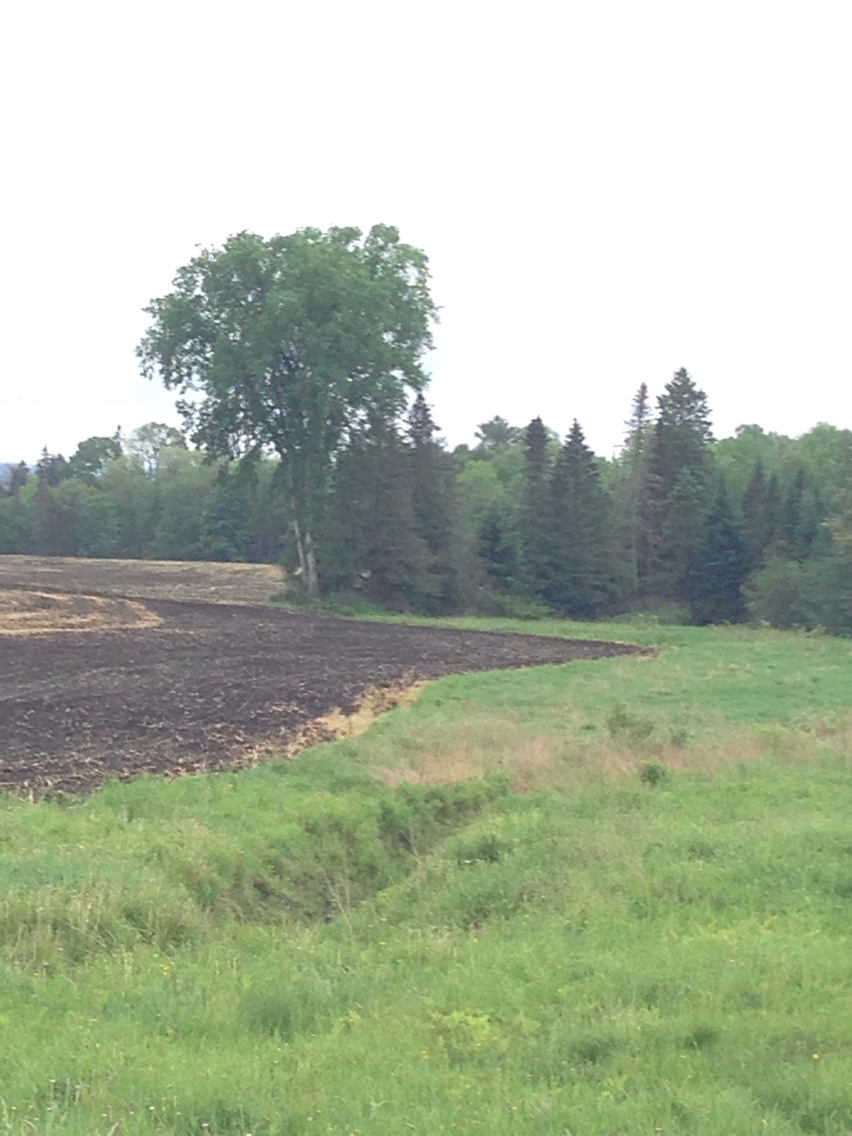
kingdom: Plantae
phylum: Tracheophyta
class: Magnoliopsida
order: Rosales
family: Ulmaceae
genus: Ulmus
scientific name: Ulmus americana
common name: American elm
